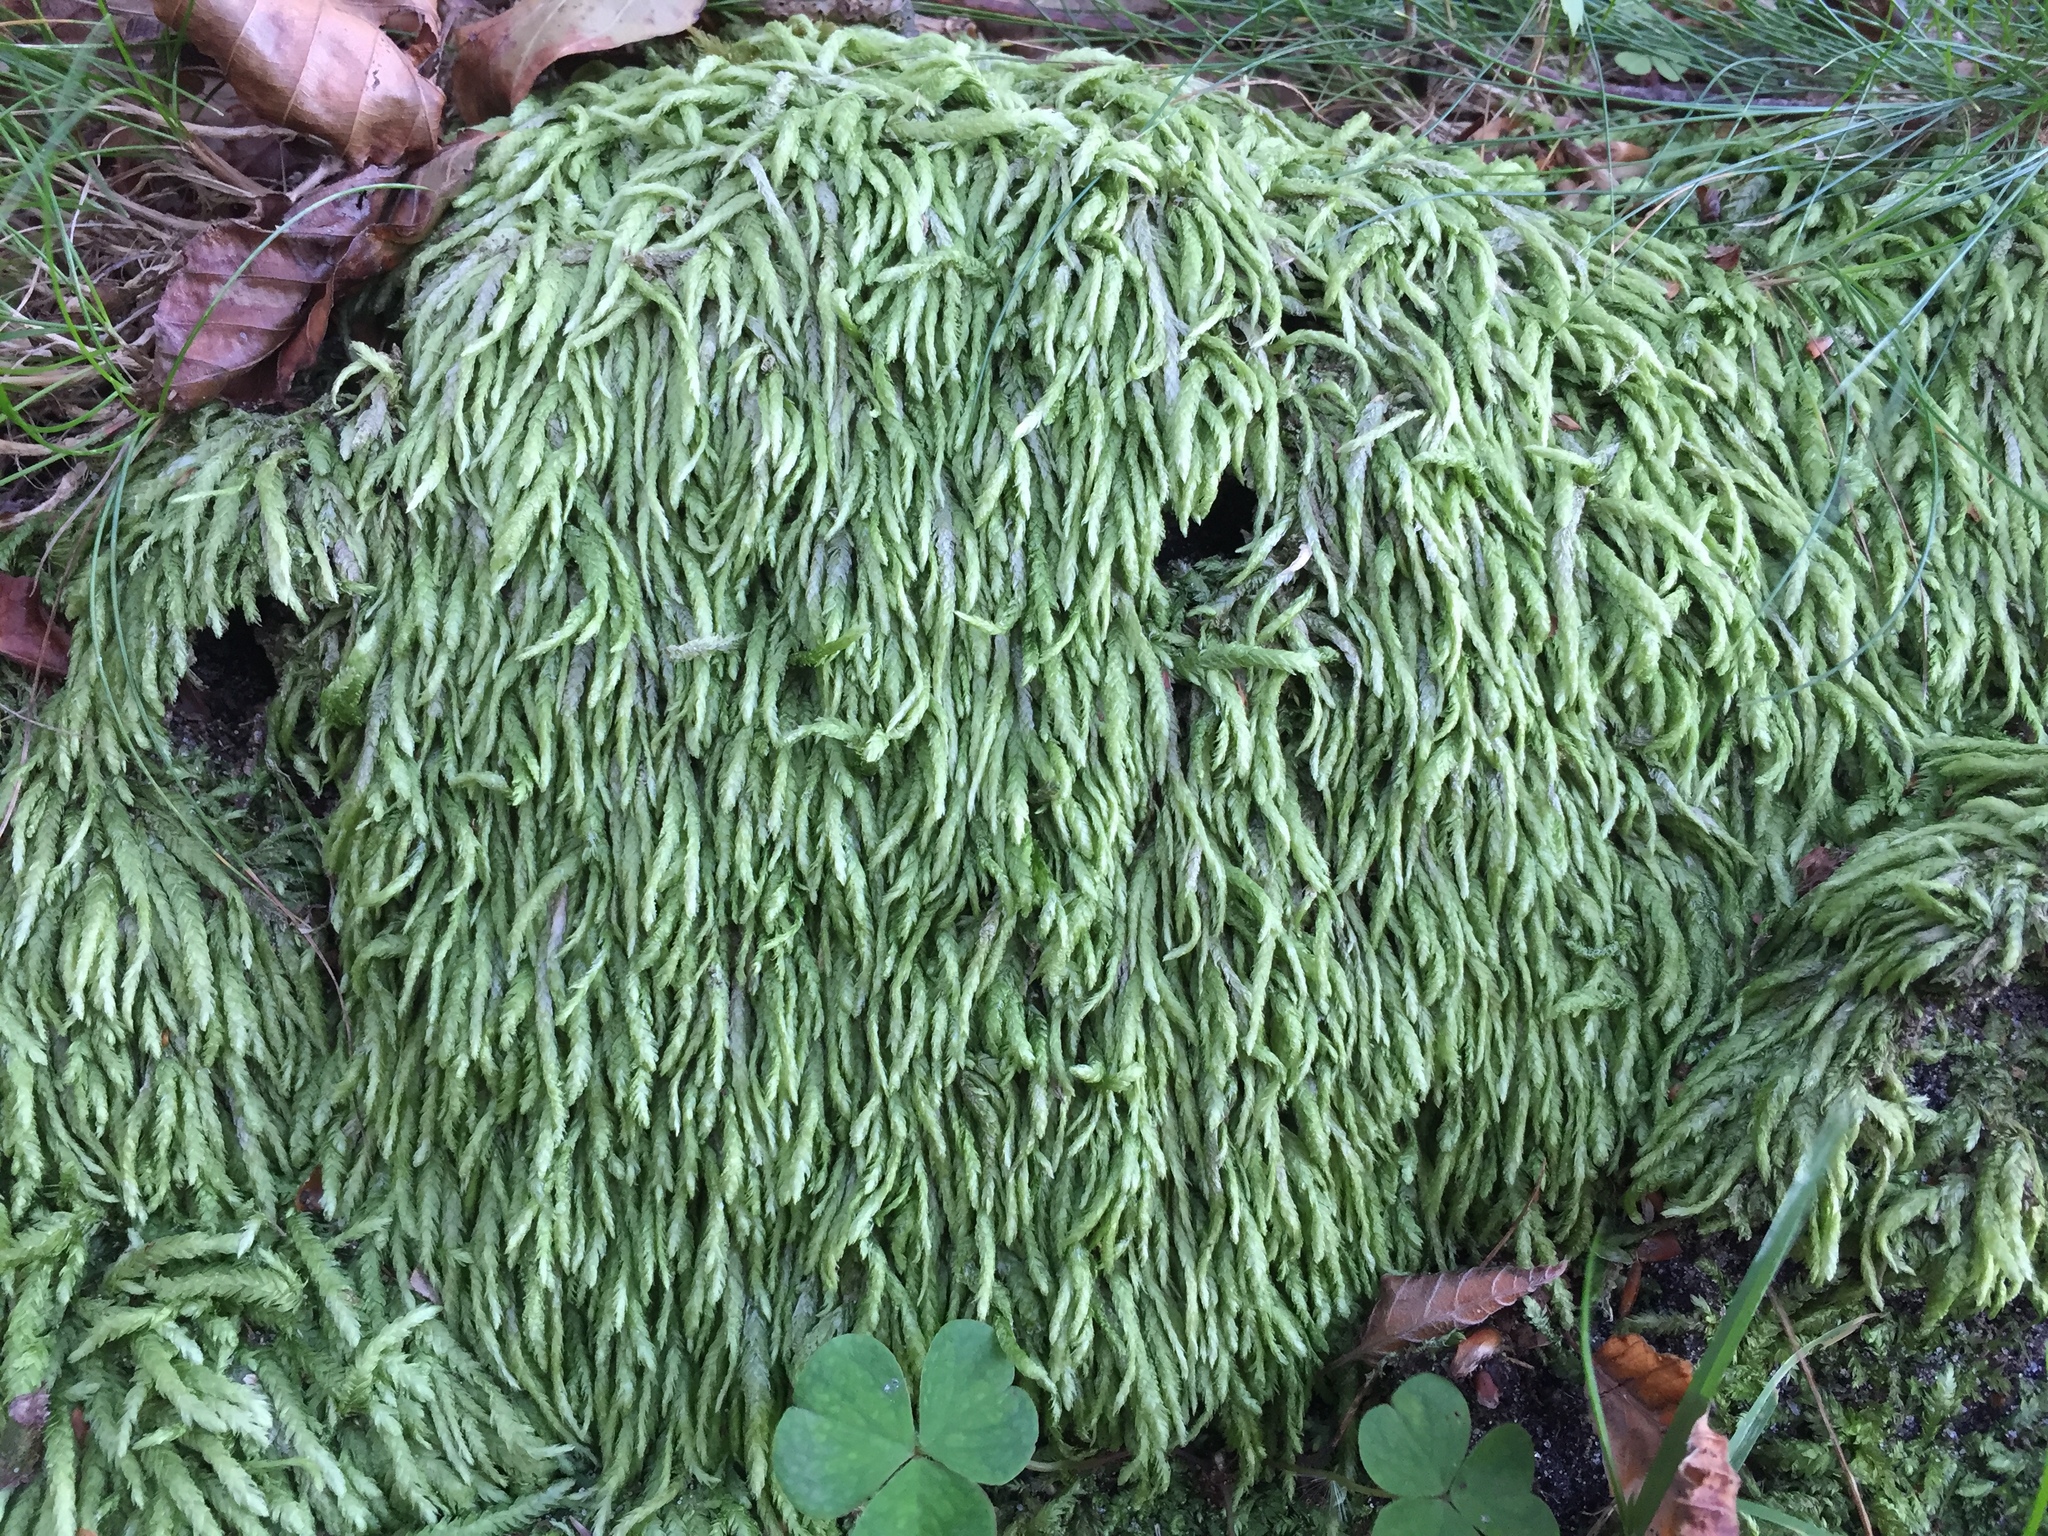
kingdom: Plantae
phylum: Bryophyta
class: Bryopsida
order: Hypnales
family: Plagiotheciaceae
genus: Plagiothecium
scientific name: Plagiothecium undulatum
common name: Waved silk-moss
